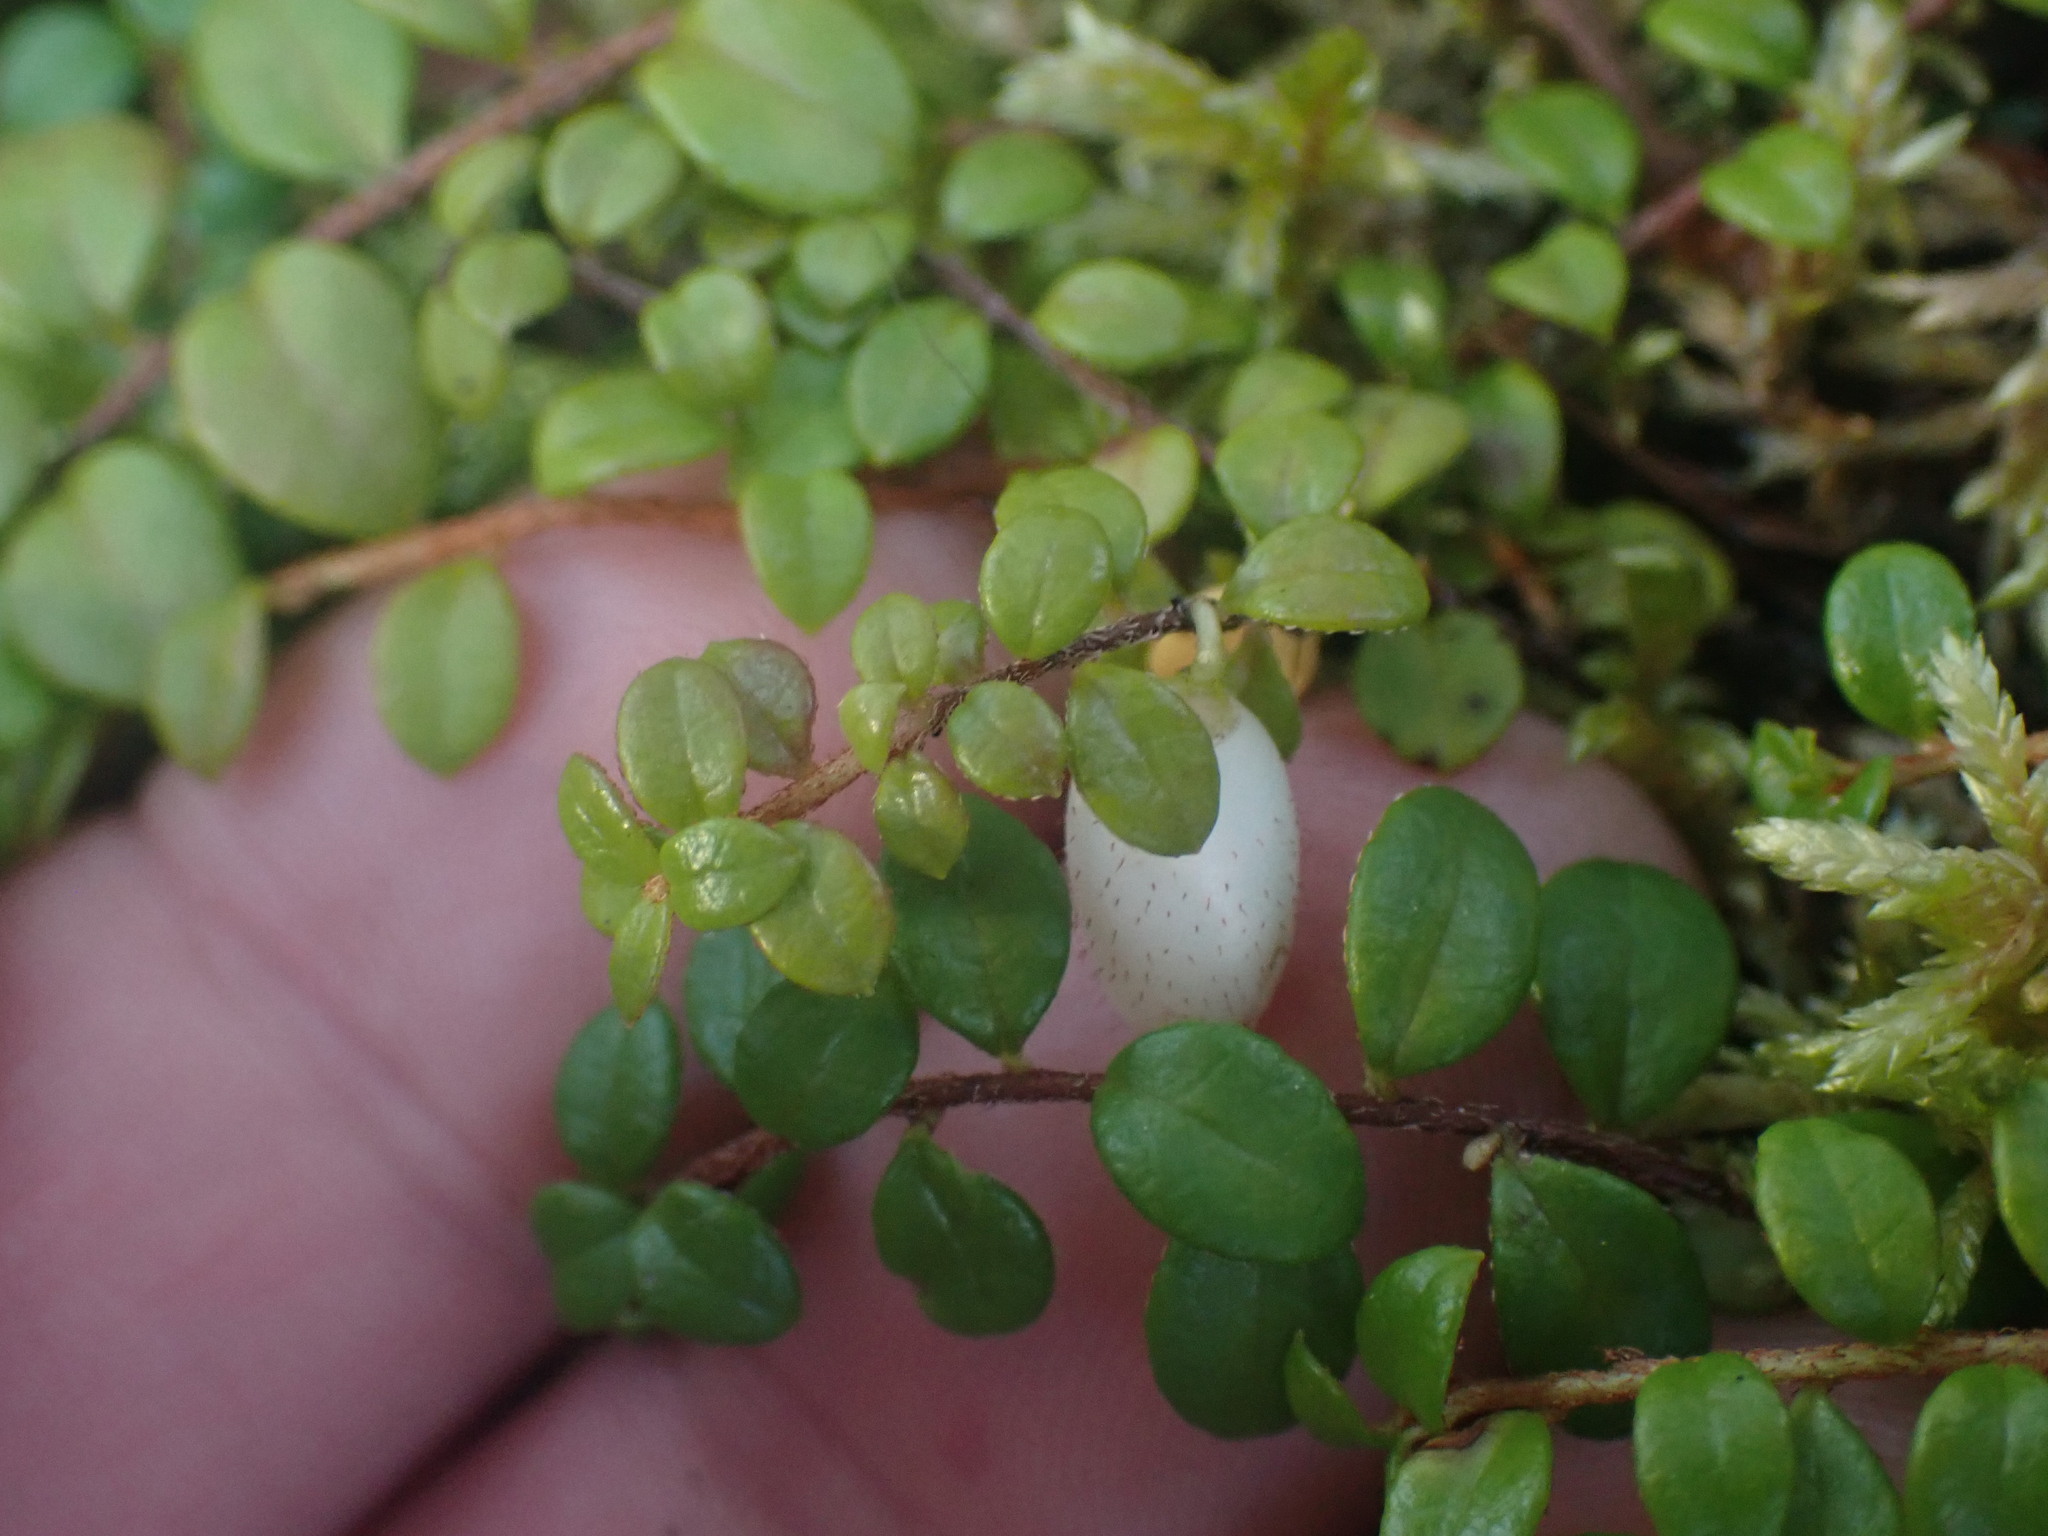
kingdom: Plantae
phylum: Tracheophyta
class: Magnoliopsida
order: Ericales
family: Ericaceae
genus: Gaultheria
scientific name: Gaultheria hispidula
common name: Cancer wintergreen
